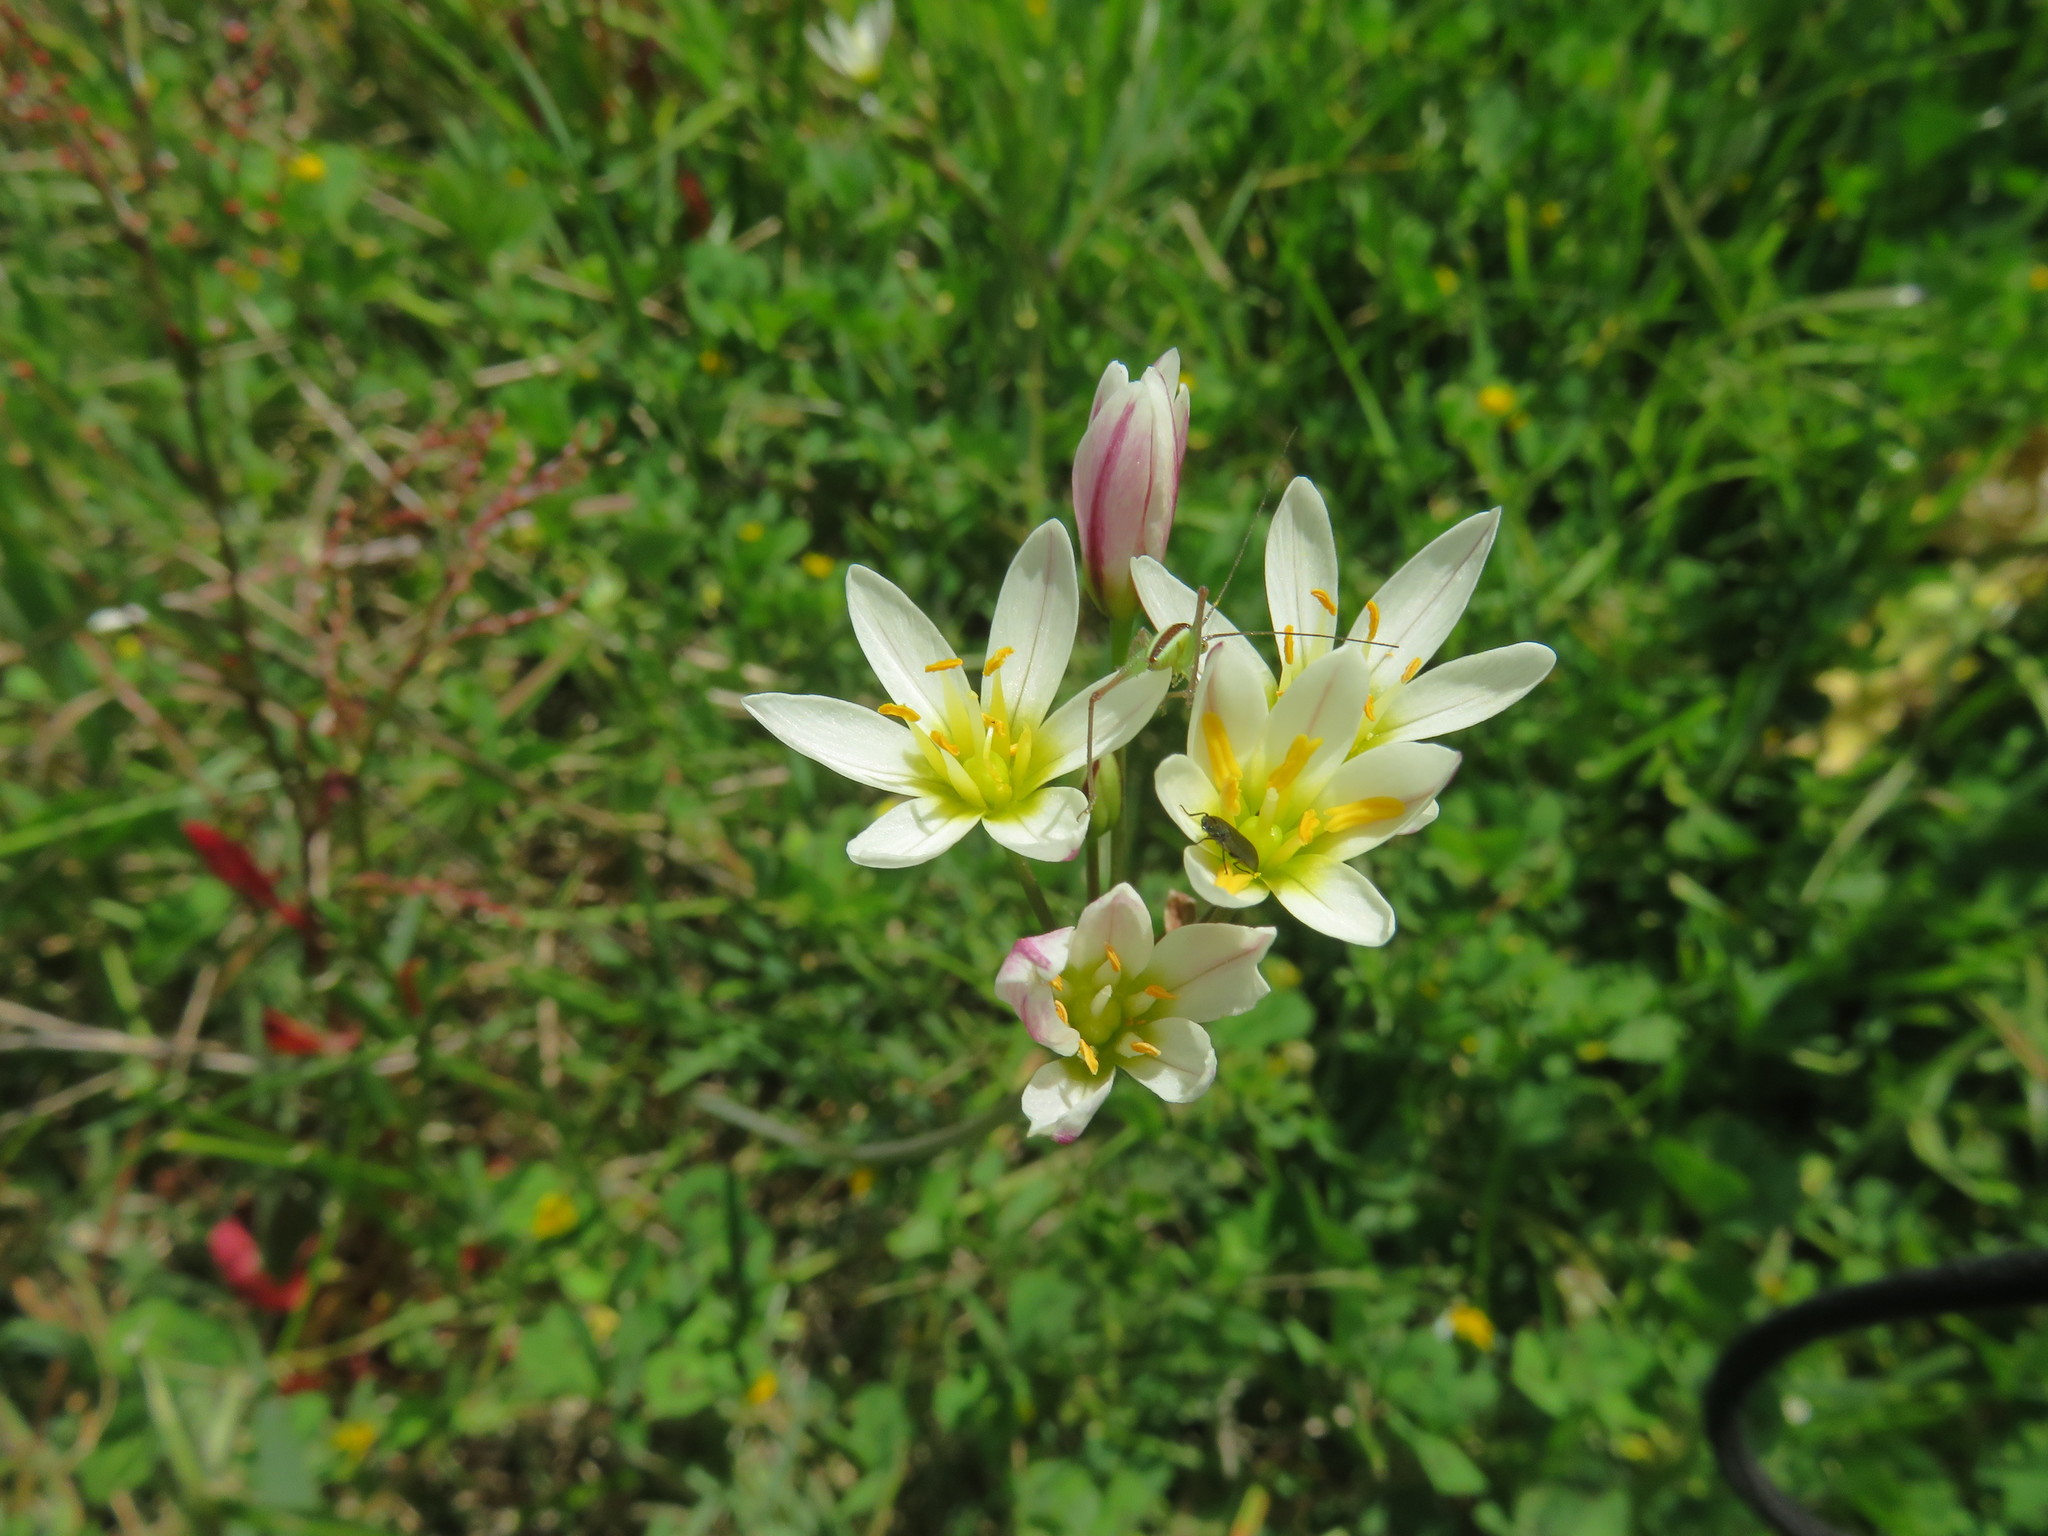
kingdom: Plantae
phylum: Tracheophyta
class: Liliopsida
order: Asparagales
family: Amaryllidaceae
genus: Nothoscordum
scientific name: Nothoscordum bivalve
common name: Crow-poison
